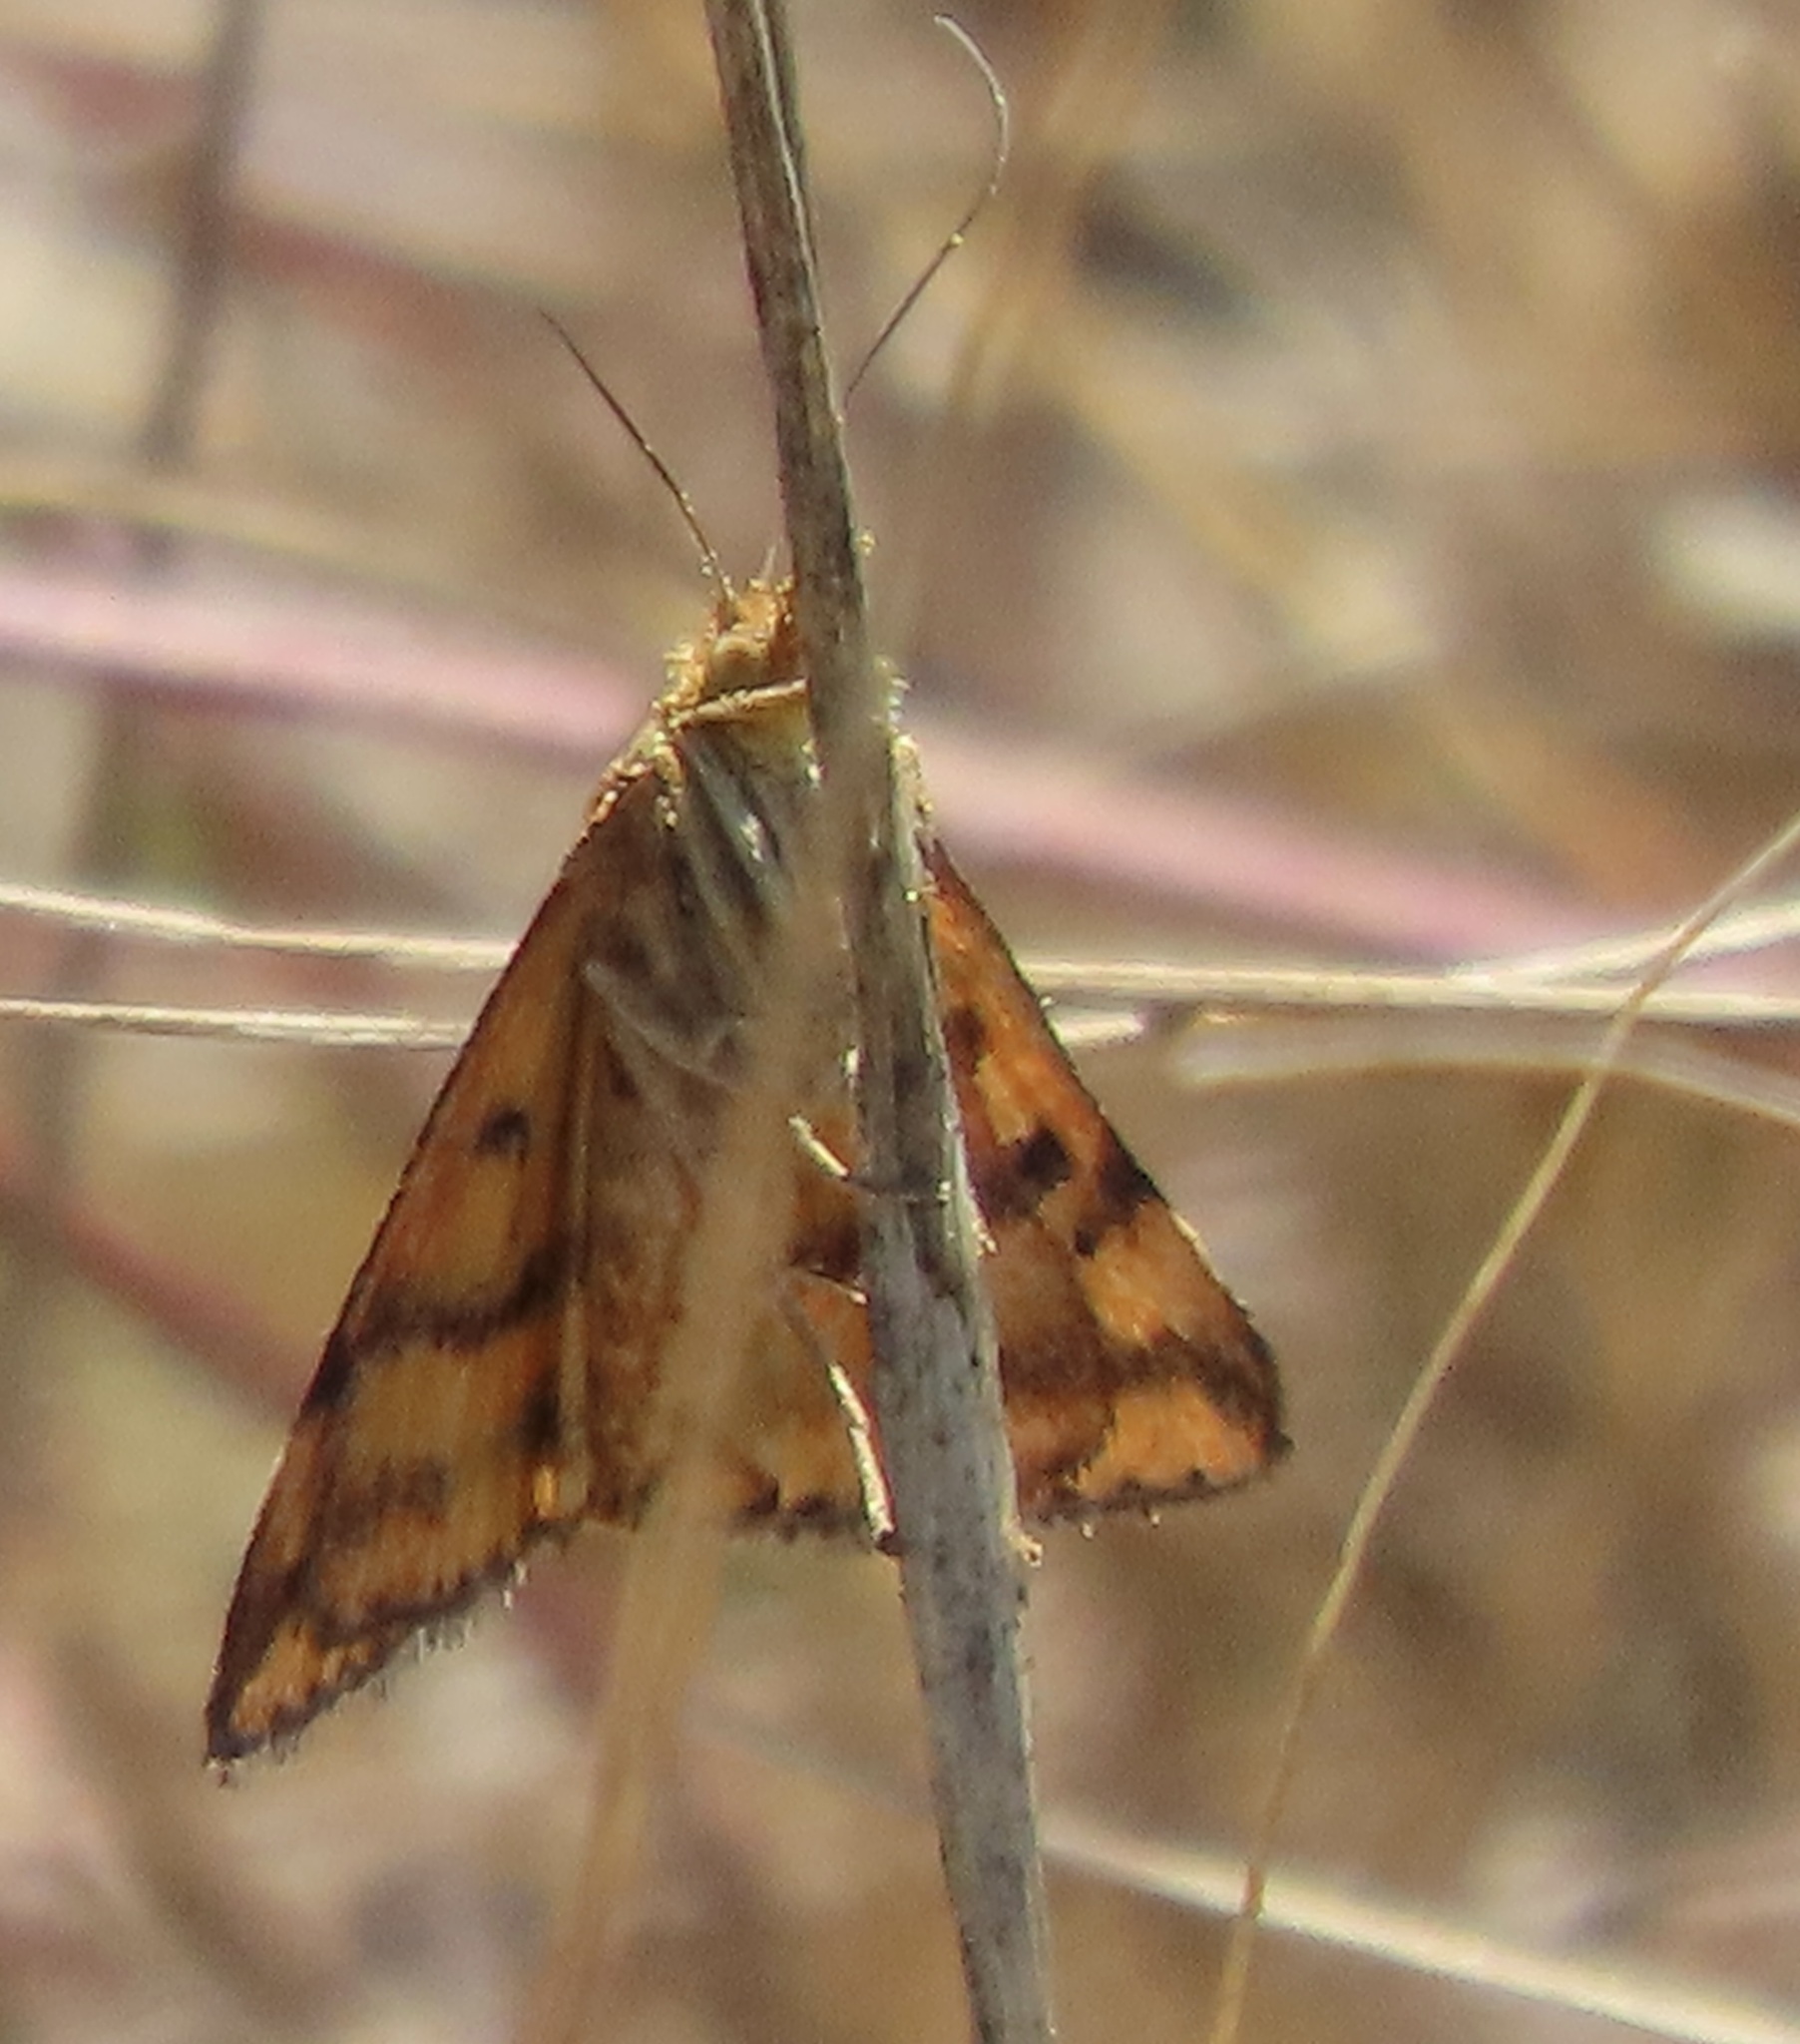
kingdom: Animalia
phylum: Arthropoda
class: Insecta
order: Lepidoptera
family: Crambidae
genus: Pyrausta
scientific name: Pyrausta subsequalis
